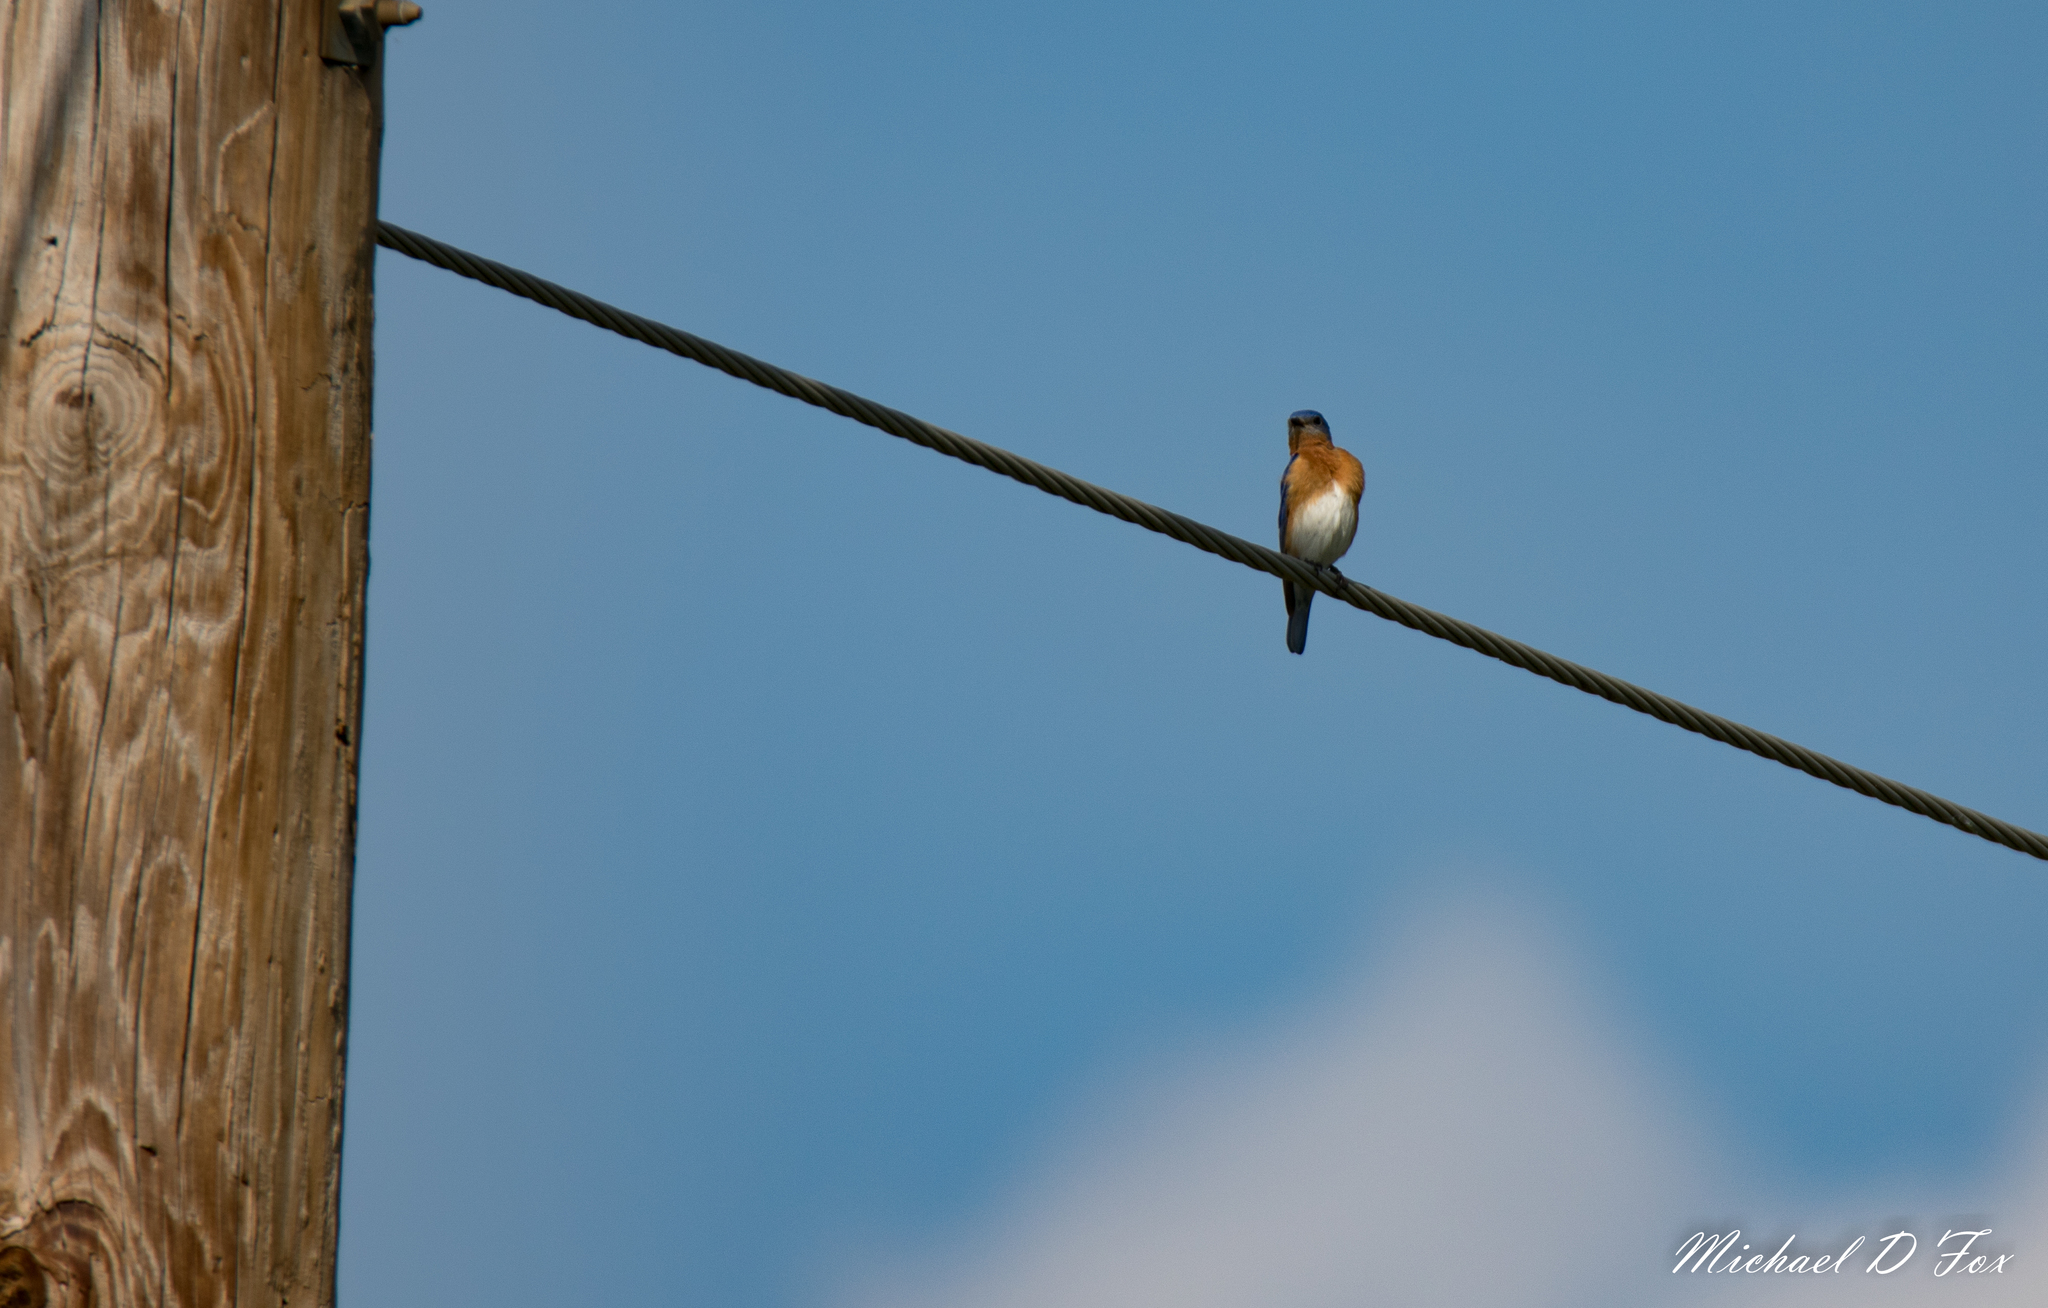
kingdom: Animalia
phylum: Chordata
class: Aves
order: Passeriformes
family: Turdidae
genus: Sialia
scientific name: Sialia sialis
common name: Eastern bluebird
